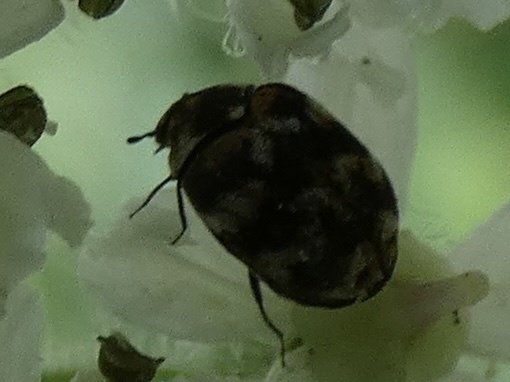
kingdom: Animalia
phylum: Arthropoda
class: Insecta
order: Coleoptera
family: Dermestidae
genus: Anthrenus
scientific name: Anthrenus verbasci
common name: Varied carpet beetle
